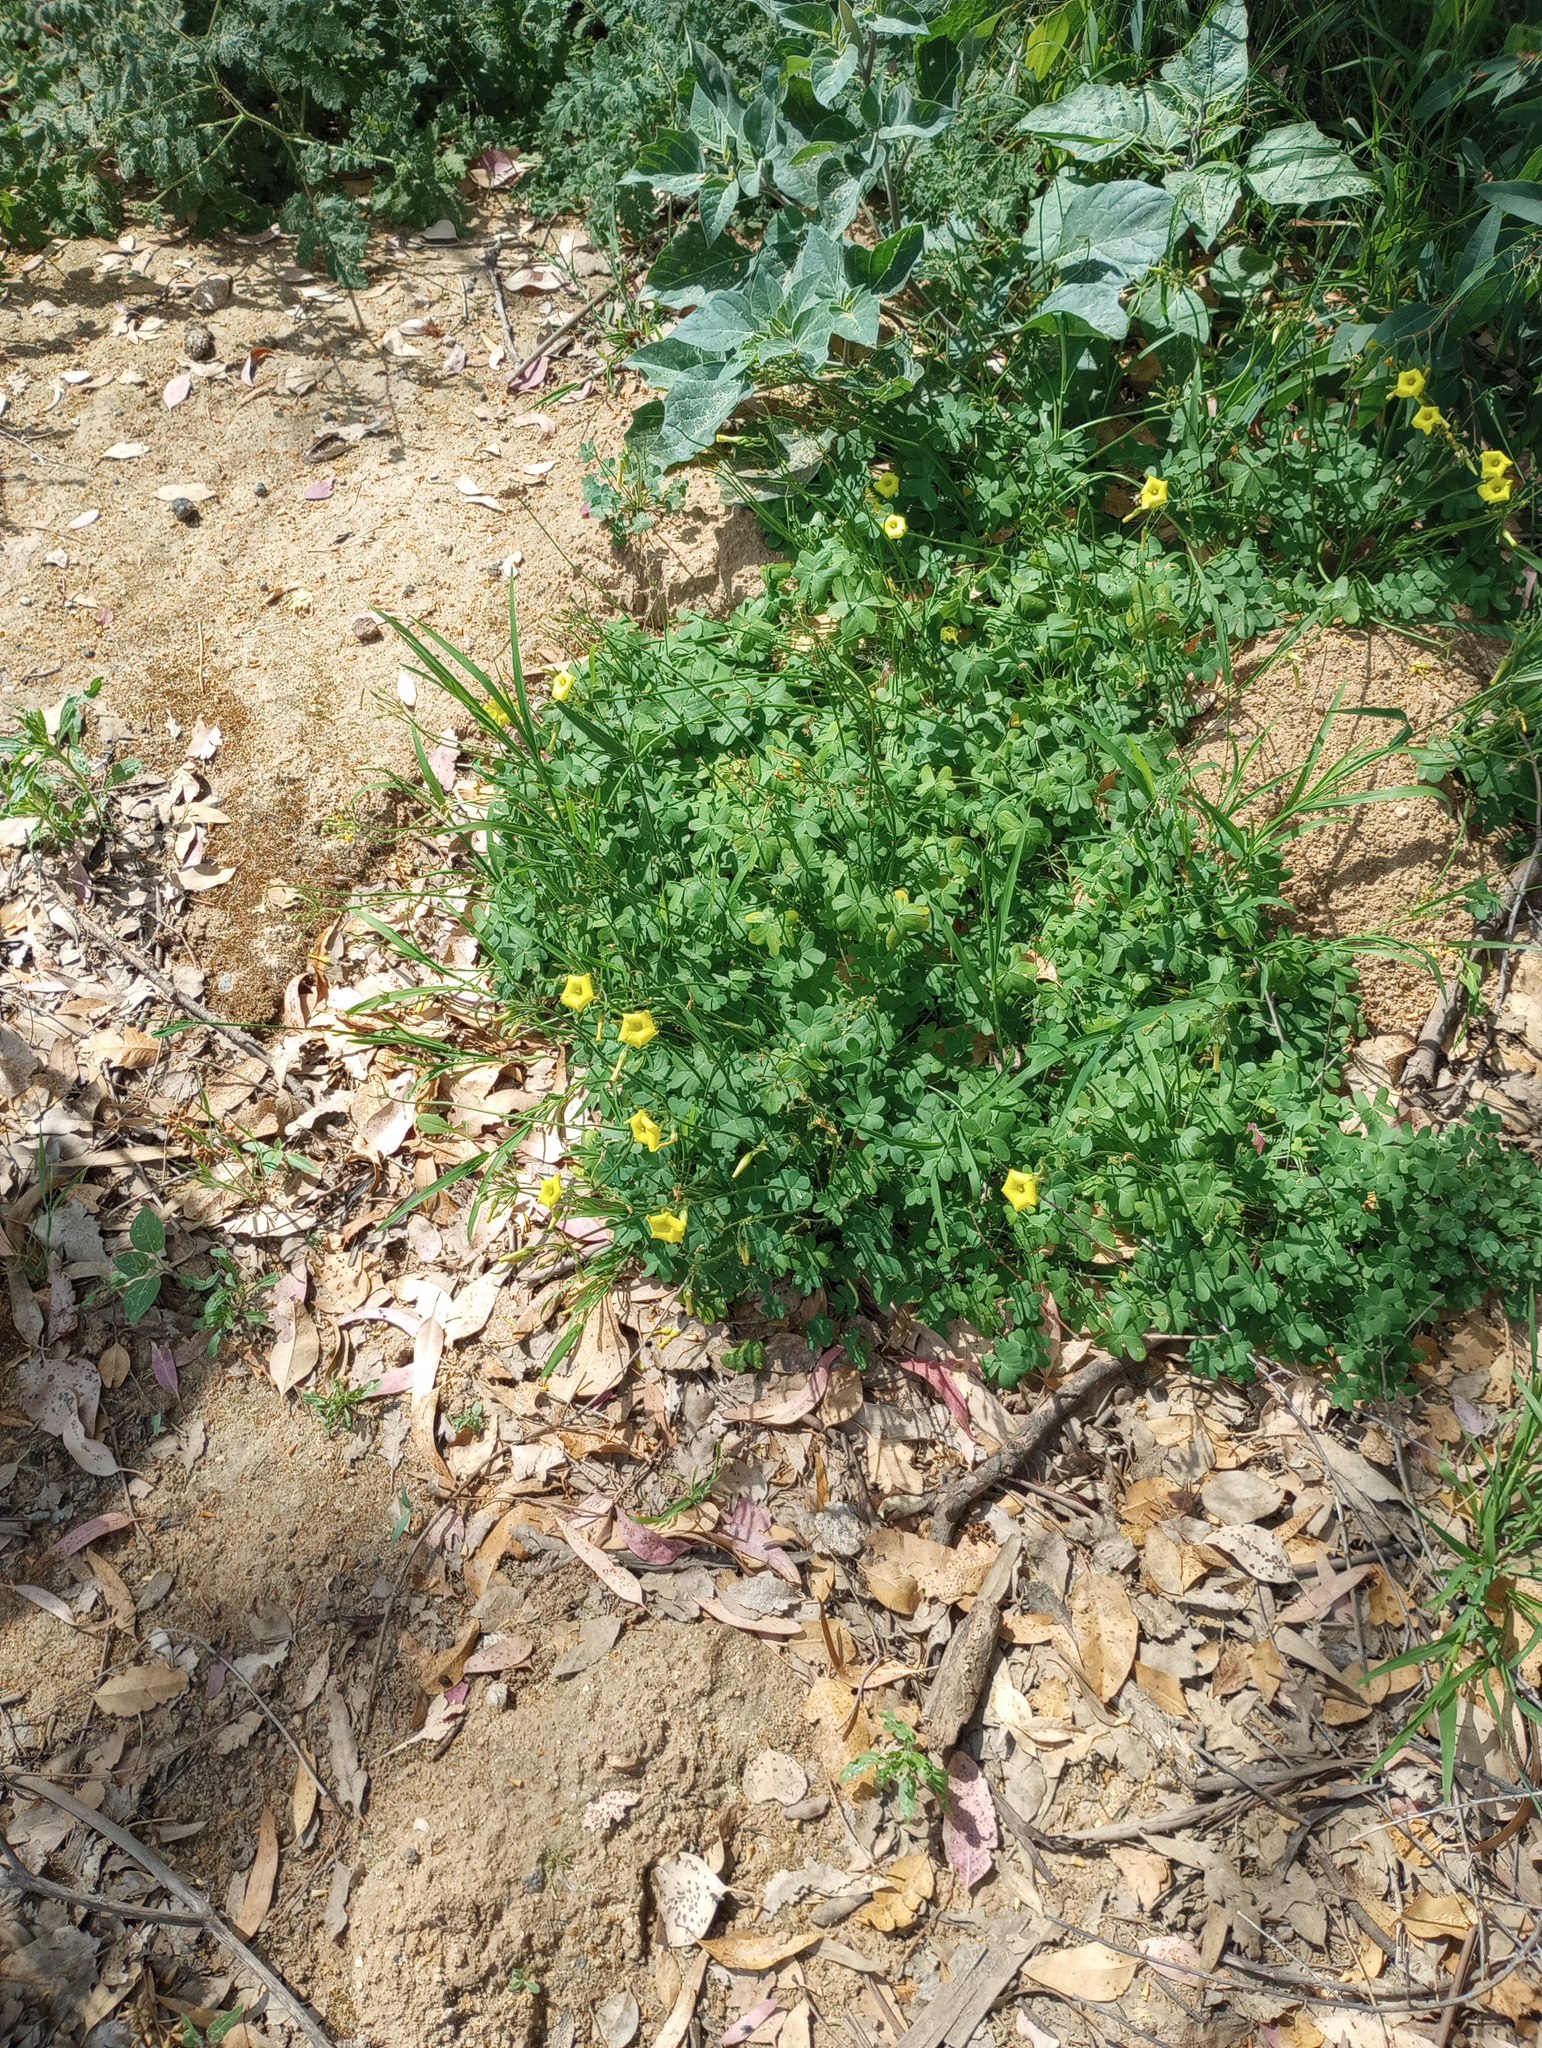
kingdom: Plantae
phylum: Tracheophyta
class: Magnoliopsida
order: Oxalidales
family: Oxalidaceae
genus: Oxalis
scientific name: Oxalis pes-caprae
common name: Bermuda-buttercup
